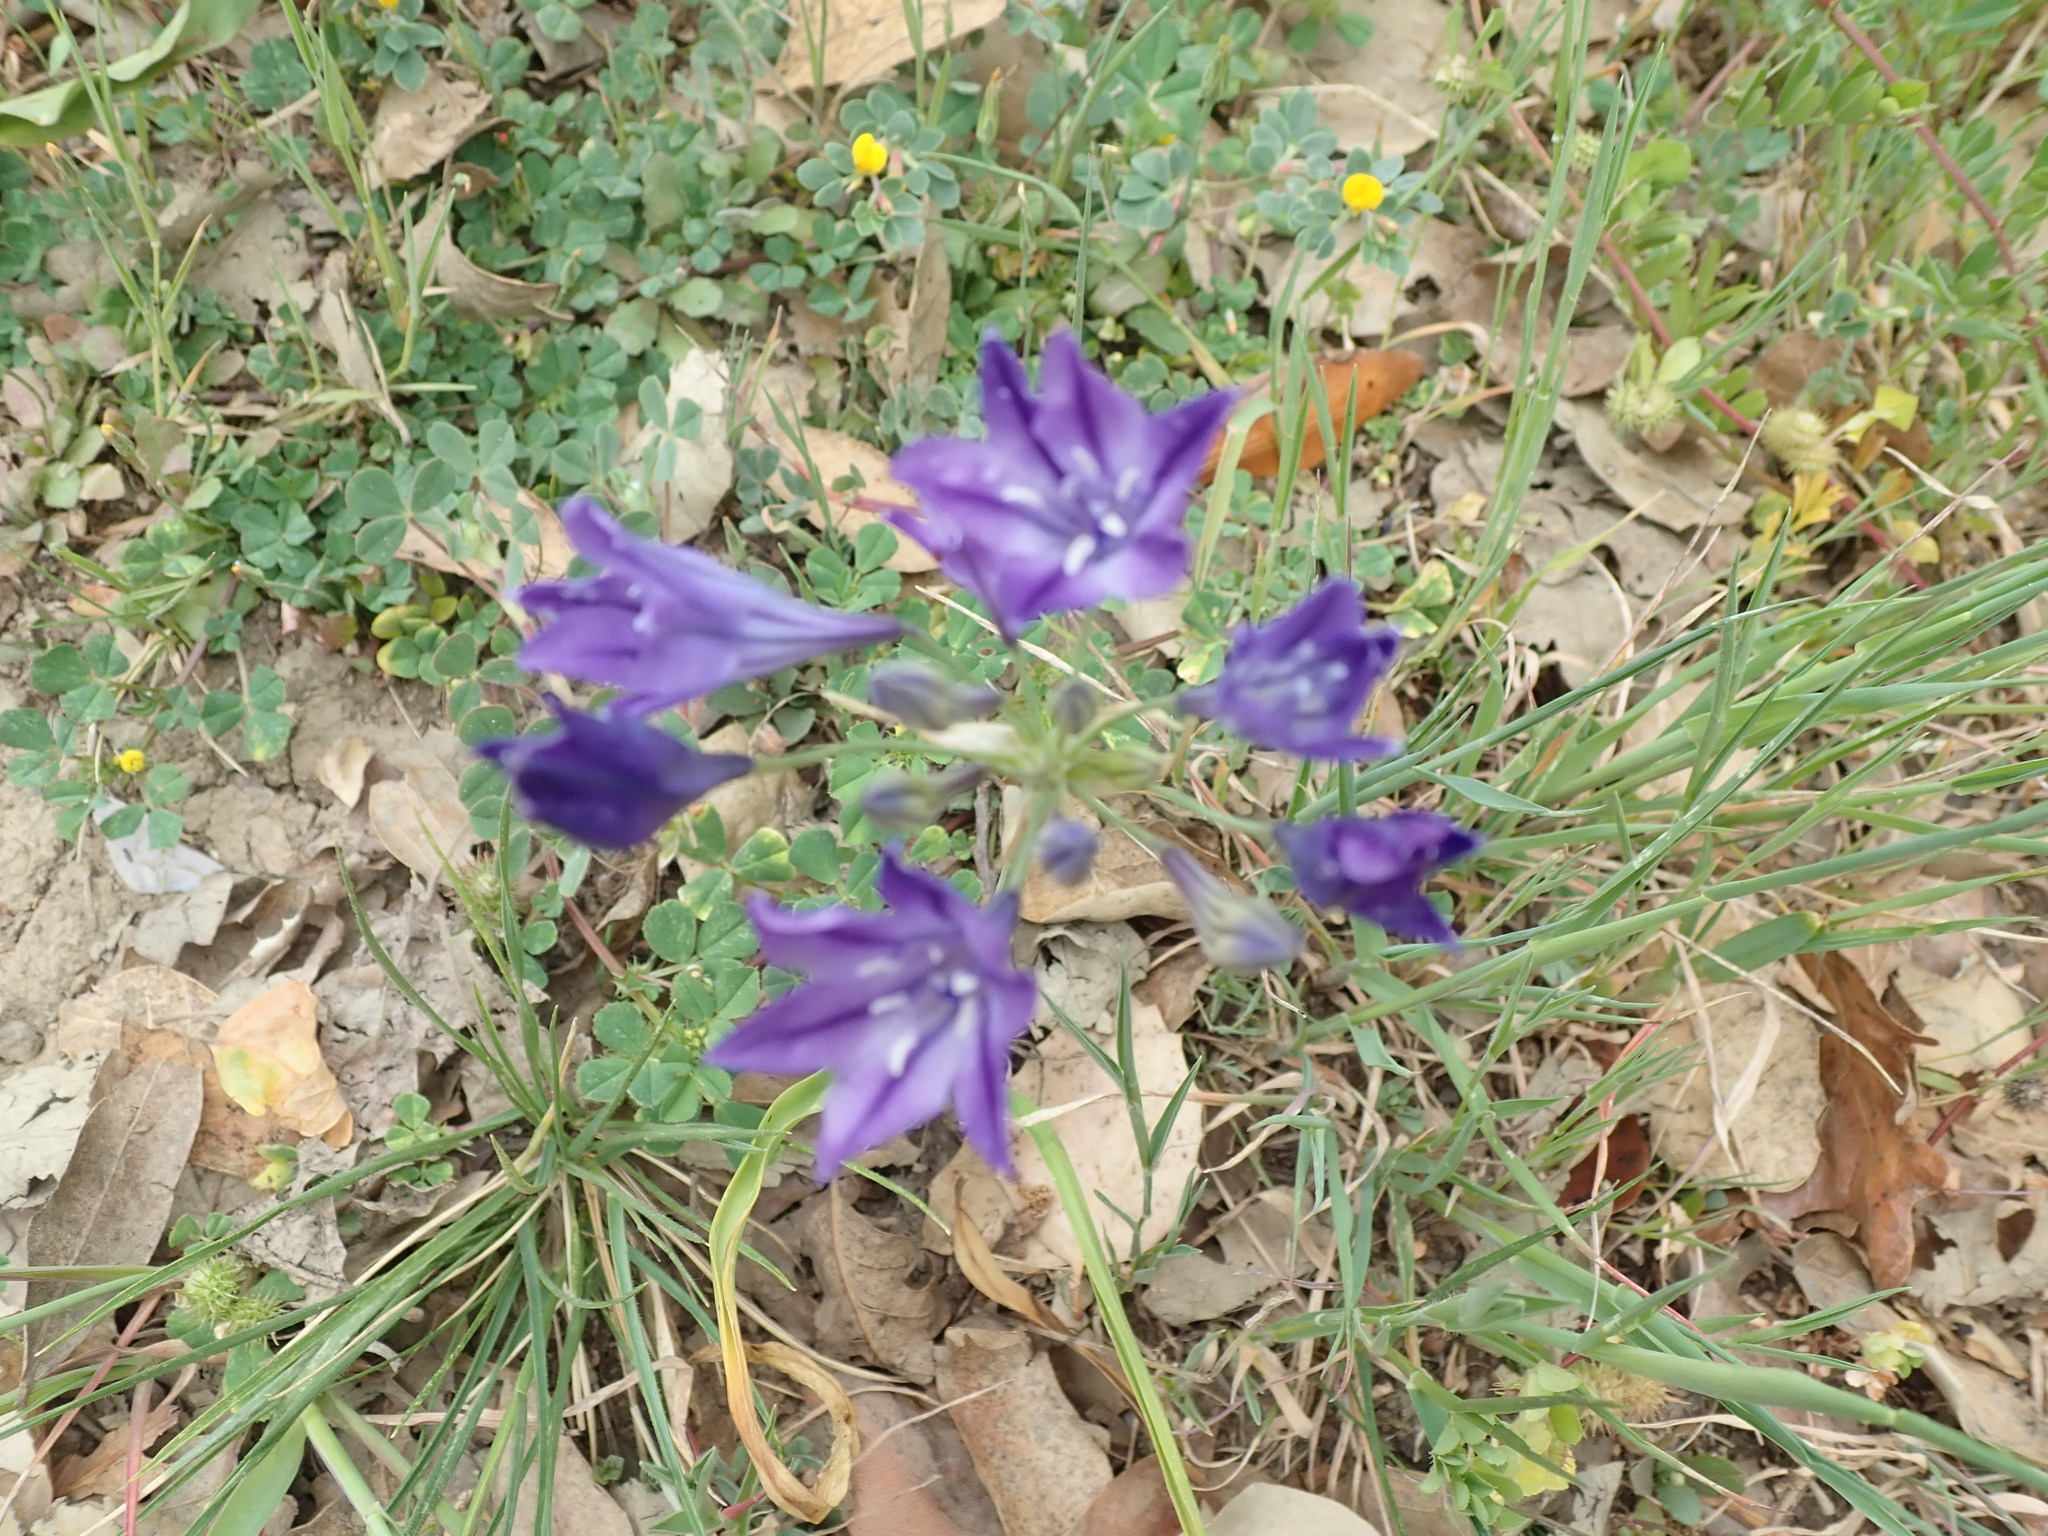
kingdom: Plantae
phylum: Tracheophyta
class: Liliopsida
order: Asparagales
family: Asparagaceae
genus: Triteleia
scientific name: Triteleia laxa
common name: Triplet-lily
